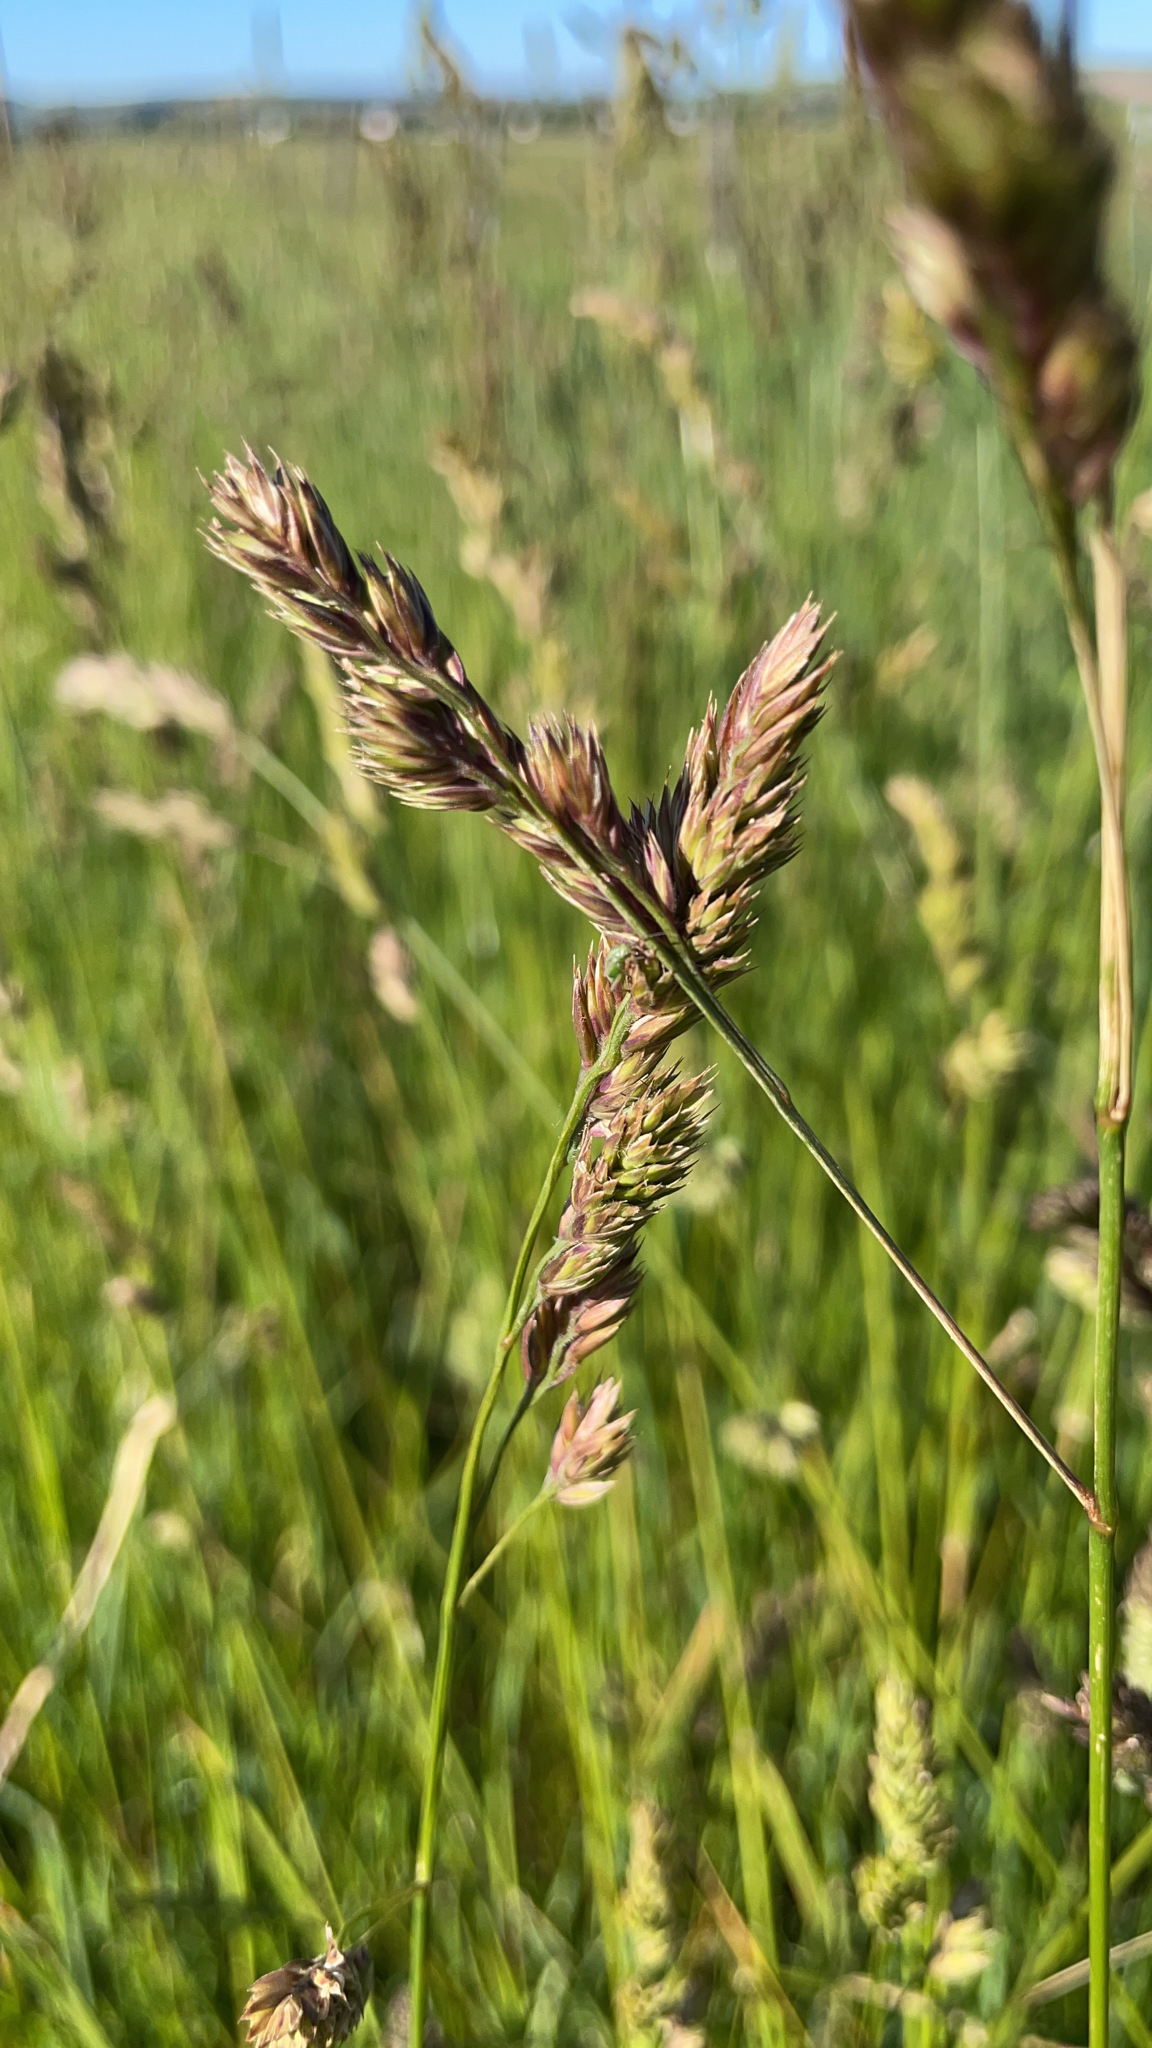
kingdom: Plantae
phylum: Tracheophyta
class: Liliopsida
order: Poales
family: Poaceae
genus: Dactylis
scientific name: Dactylis glomerata
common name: Orchardgrass
